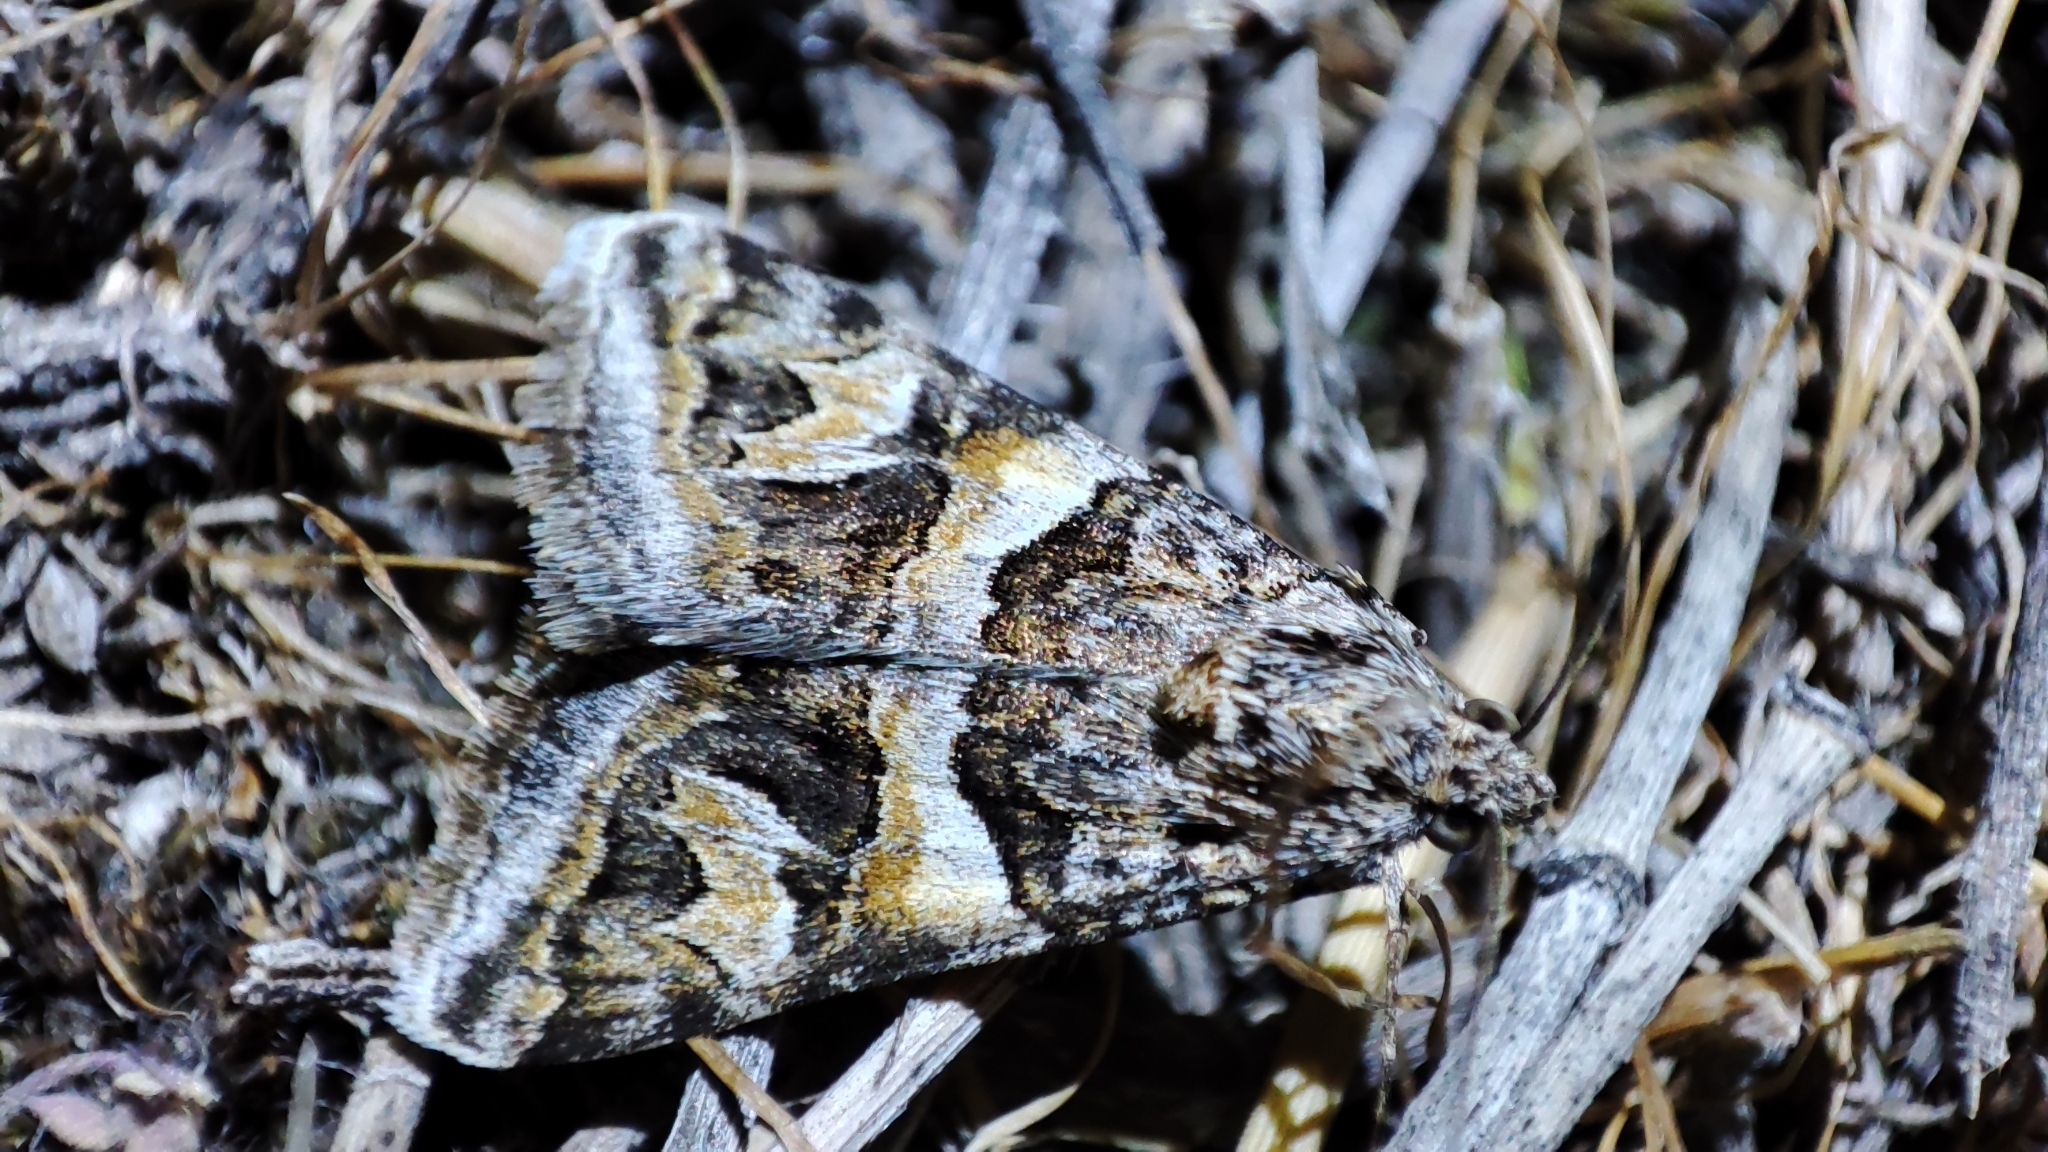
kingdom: Animalia
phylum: Arthropoda
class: Insecta
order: Lepidoptera
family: Erebidae
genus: Drasteria
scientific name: Drasteria picta
